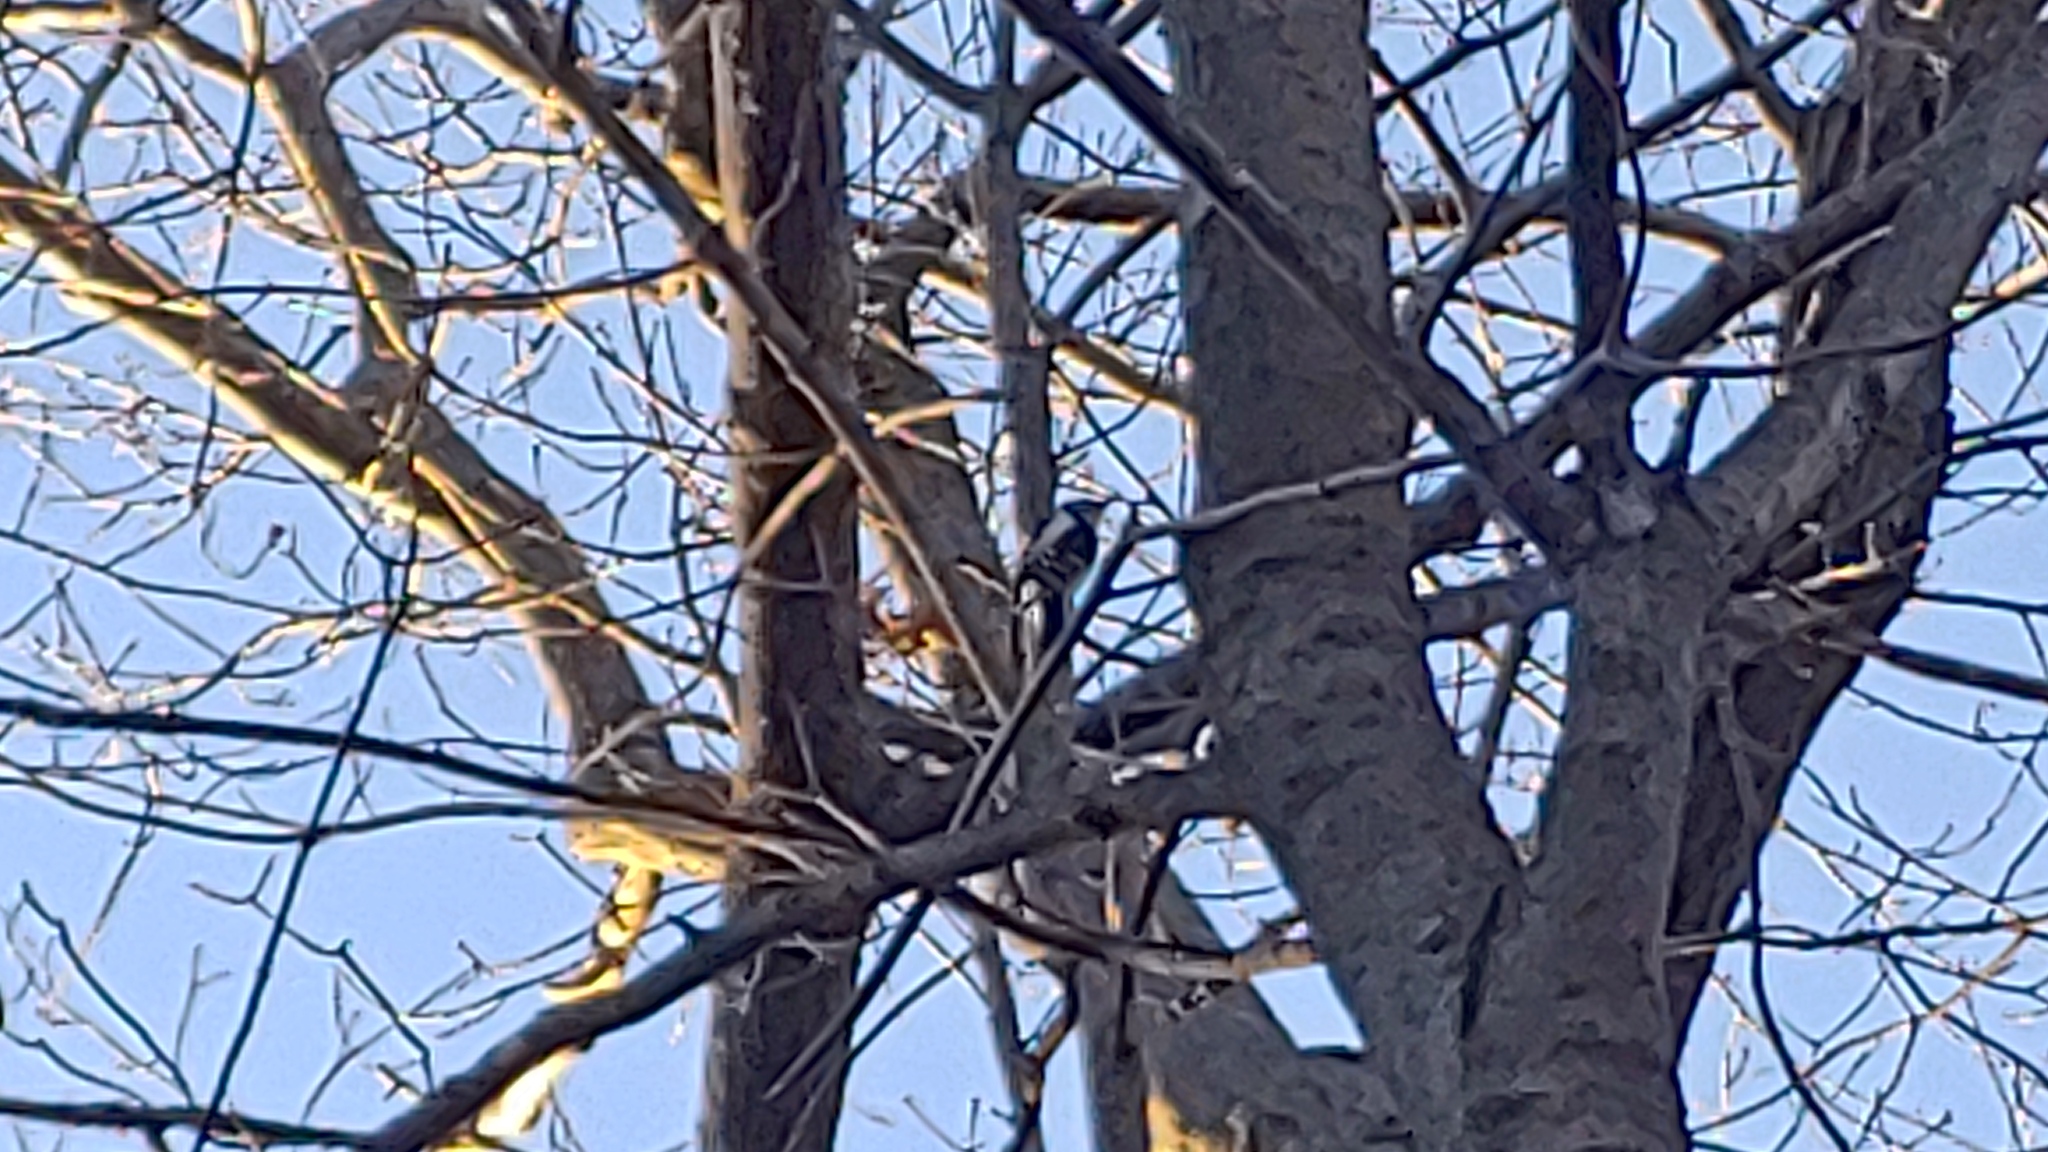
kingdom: Animalia
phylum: Chordata
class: Aves
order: Piciformes
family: Picidae
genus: Dryobates
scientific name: Dryobates pubescens
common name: Downy woodpecker
